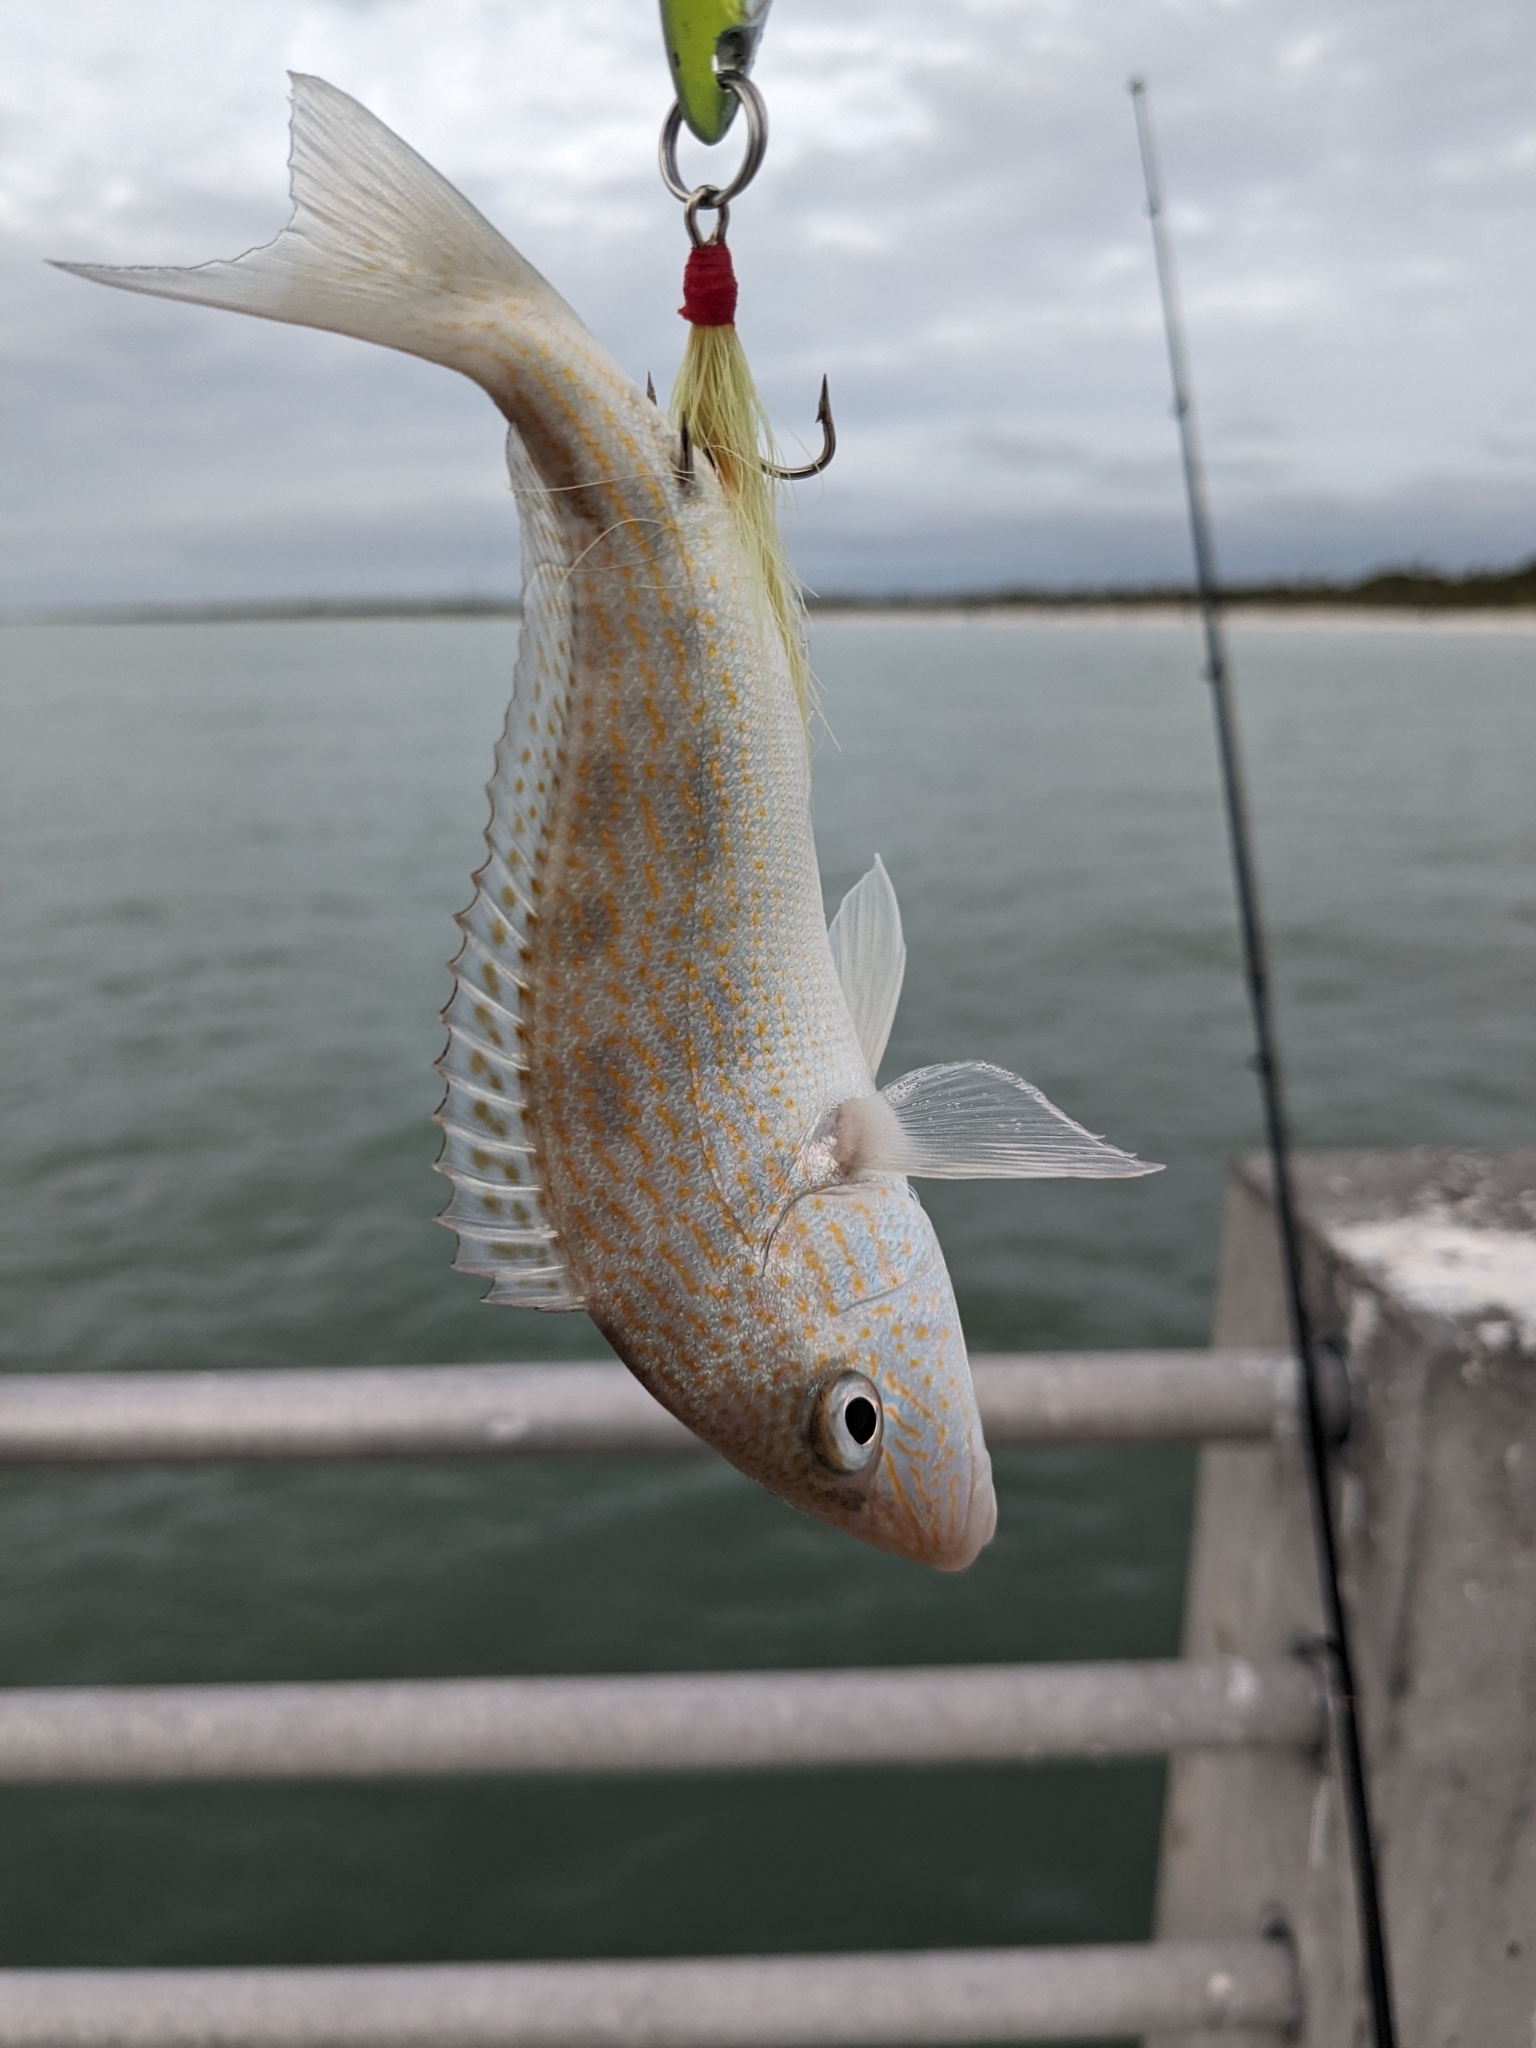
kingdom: Animalia
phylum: Chordata
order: Perciformes
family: Haemulidae
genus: Orthopristis
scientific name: Orthopristis chrysoptera
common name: Pigfish
